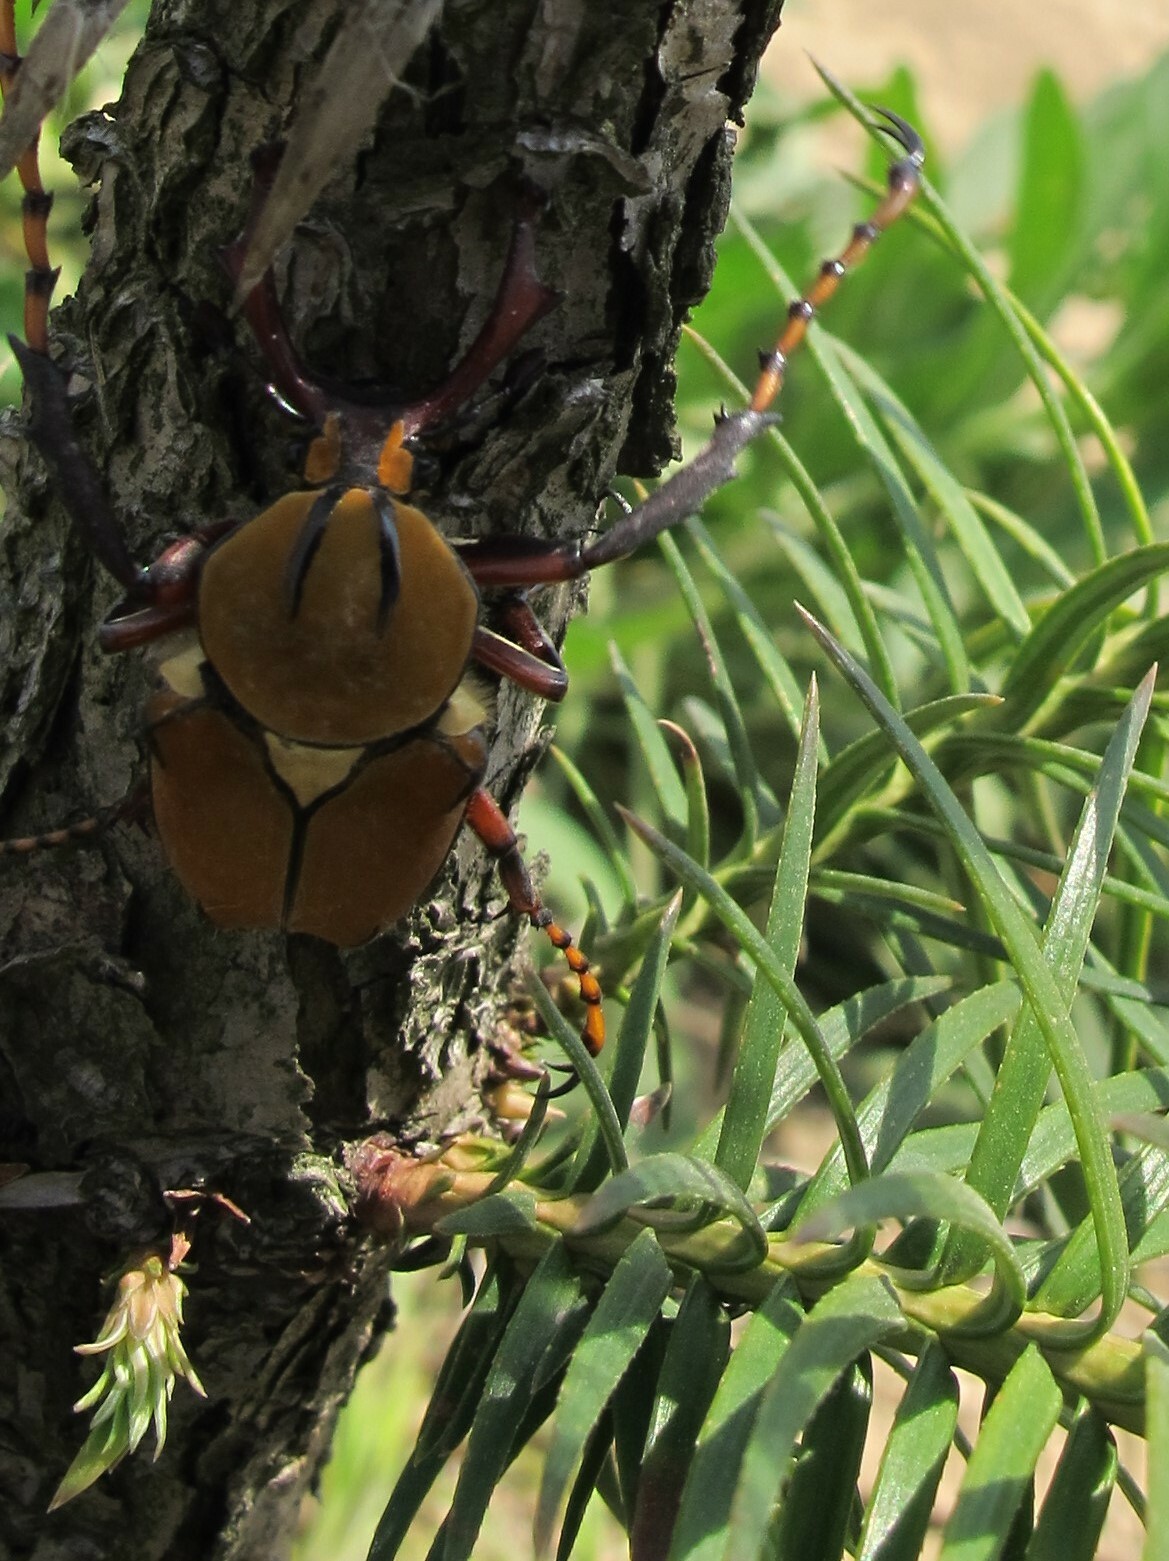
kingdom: Animalia
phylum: Arthropoda
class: Insecta
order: Coleoptera
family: Scarabaeidae
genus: Dicronocephalus
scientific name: Dicronocephalus bowringi
